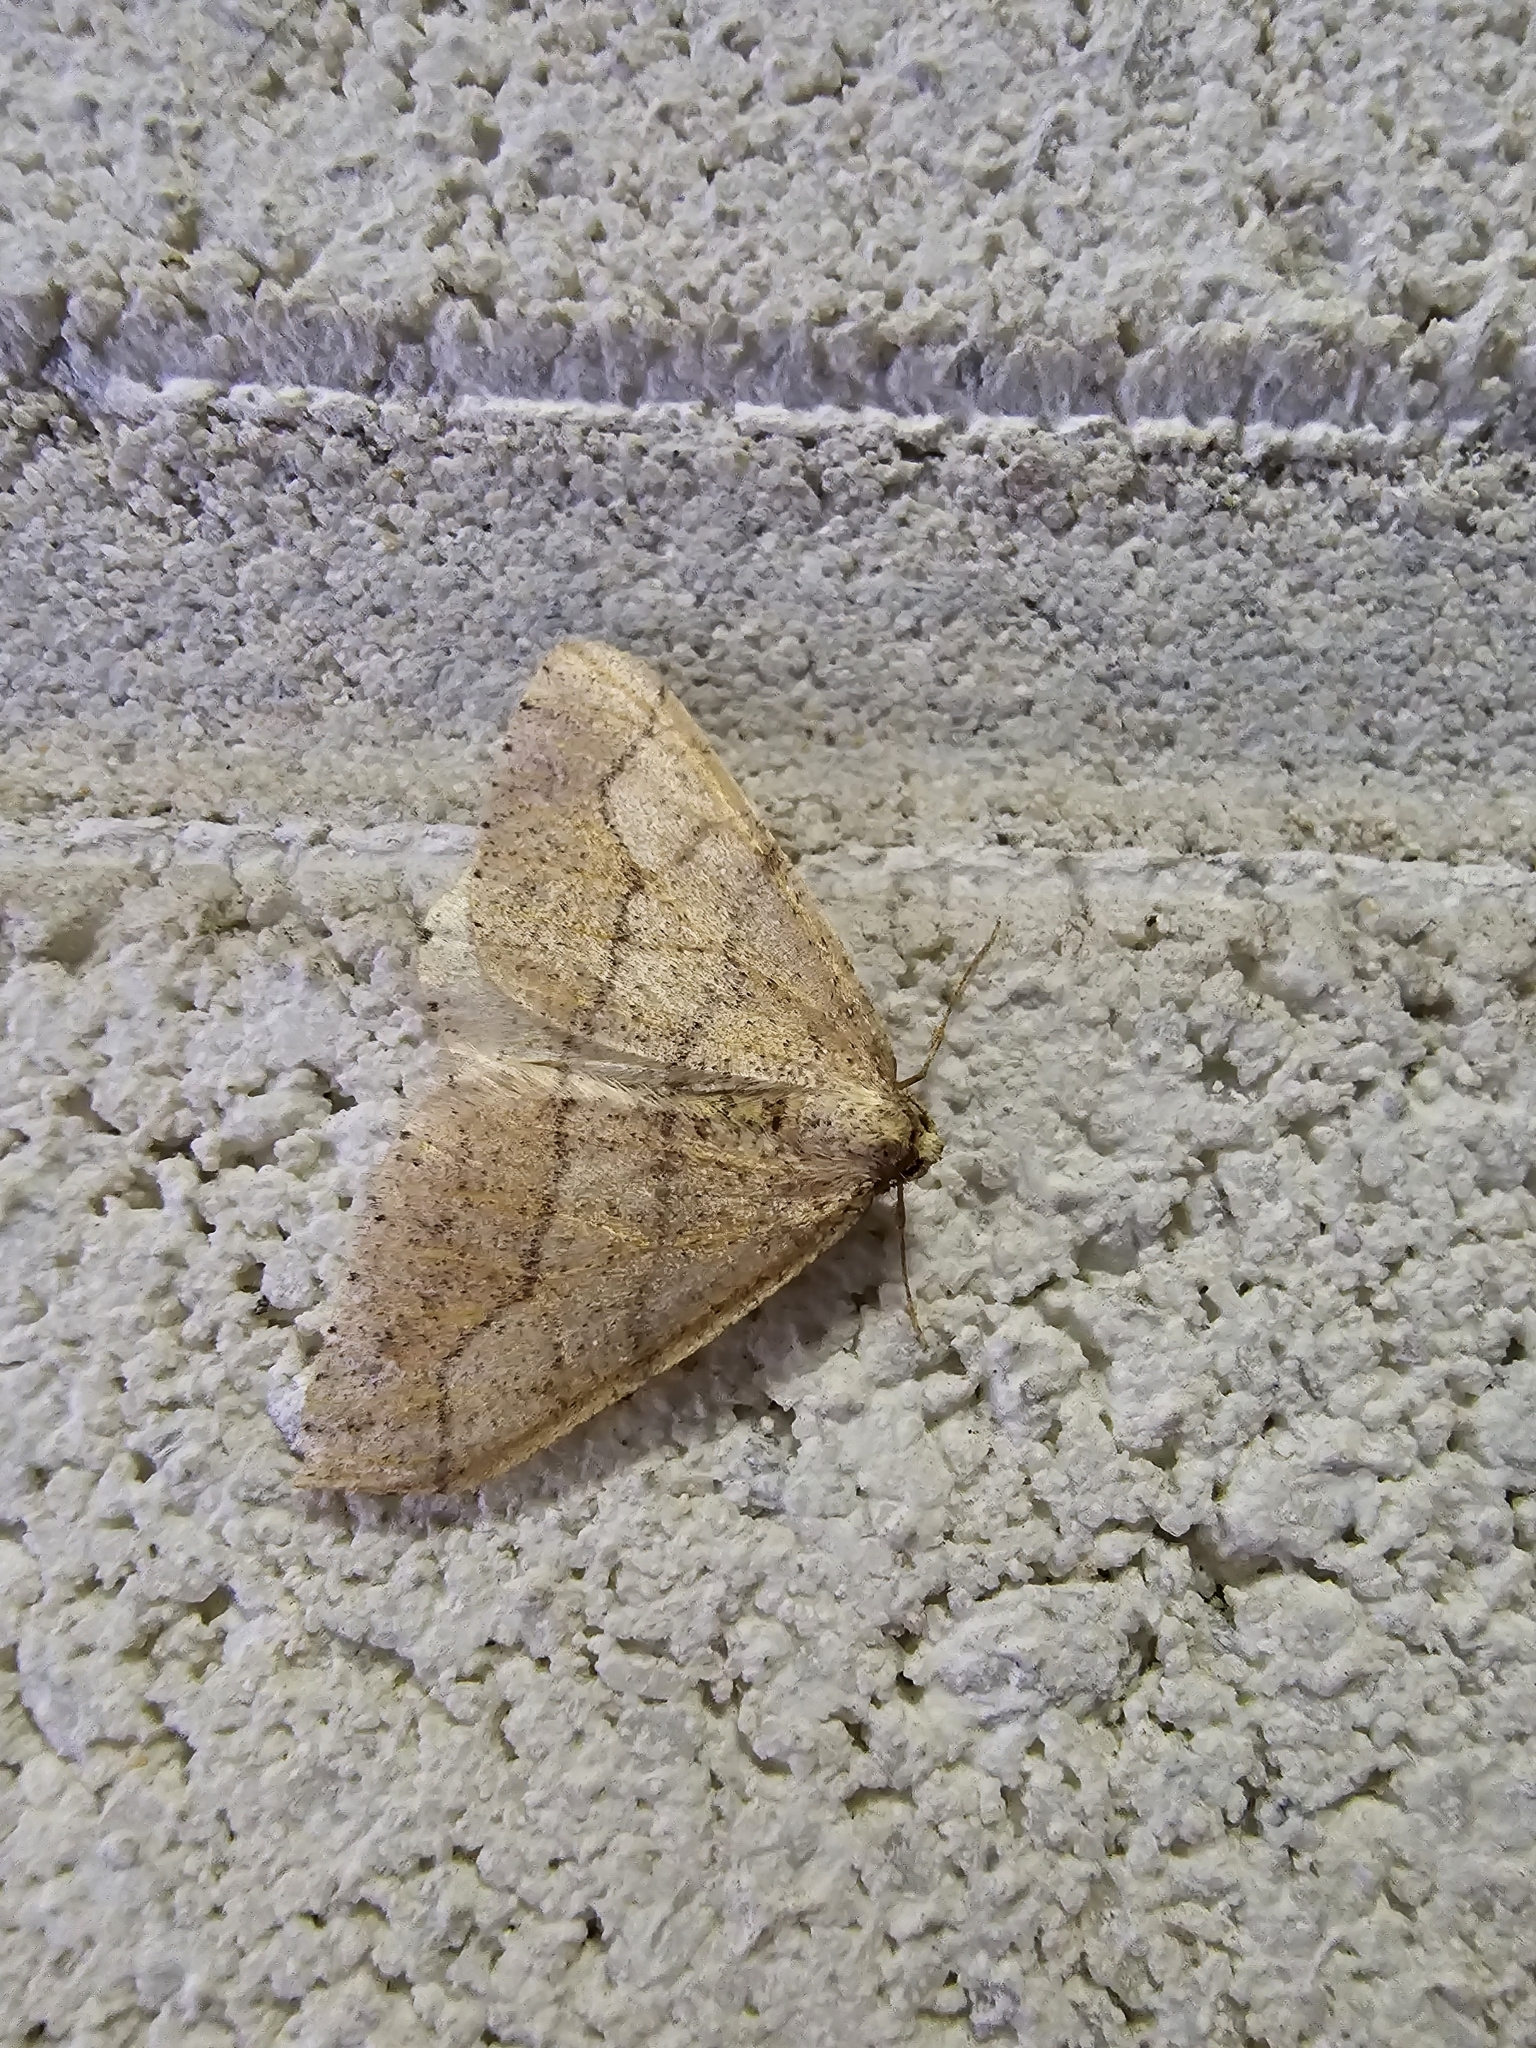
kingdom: Animalia
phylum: Arthropoda
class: Insecta
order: Lepidoptera
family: Geometridae
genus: Agriopis
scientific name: Agriopis marginaria
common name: Dotted border
